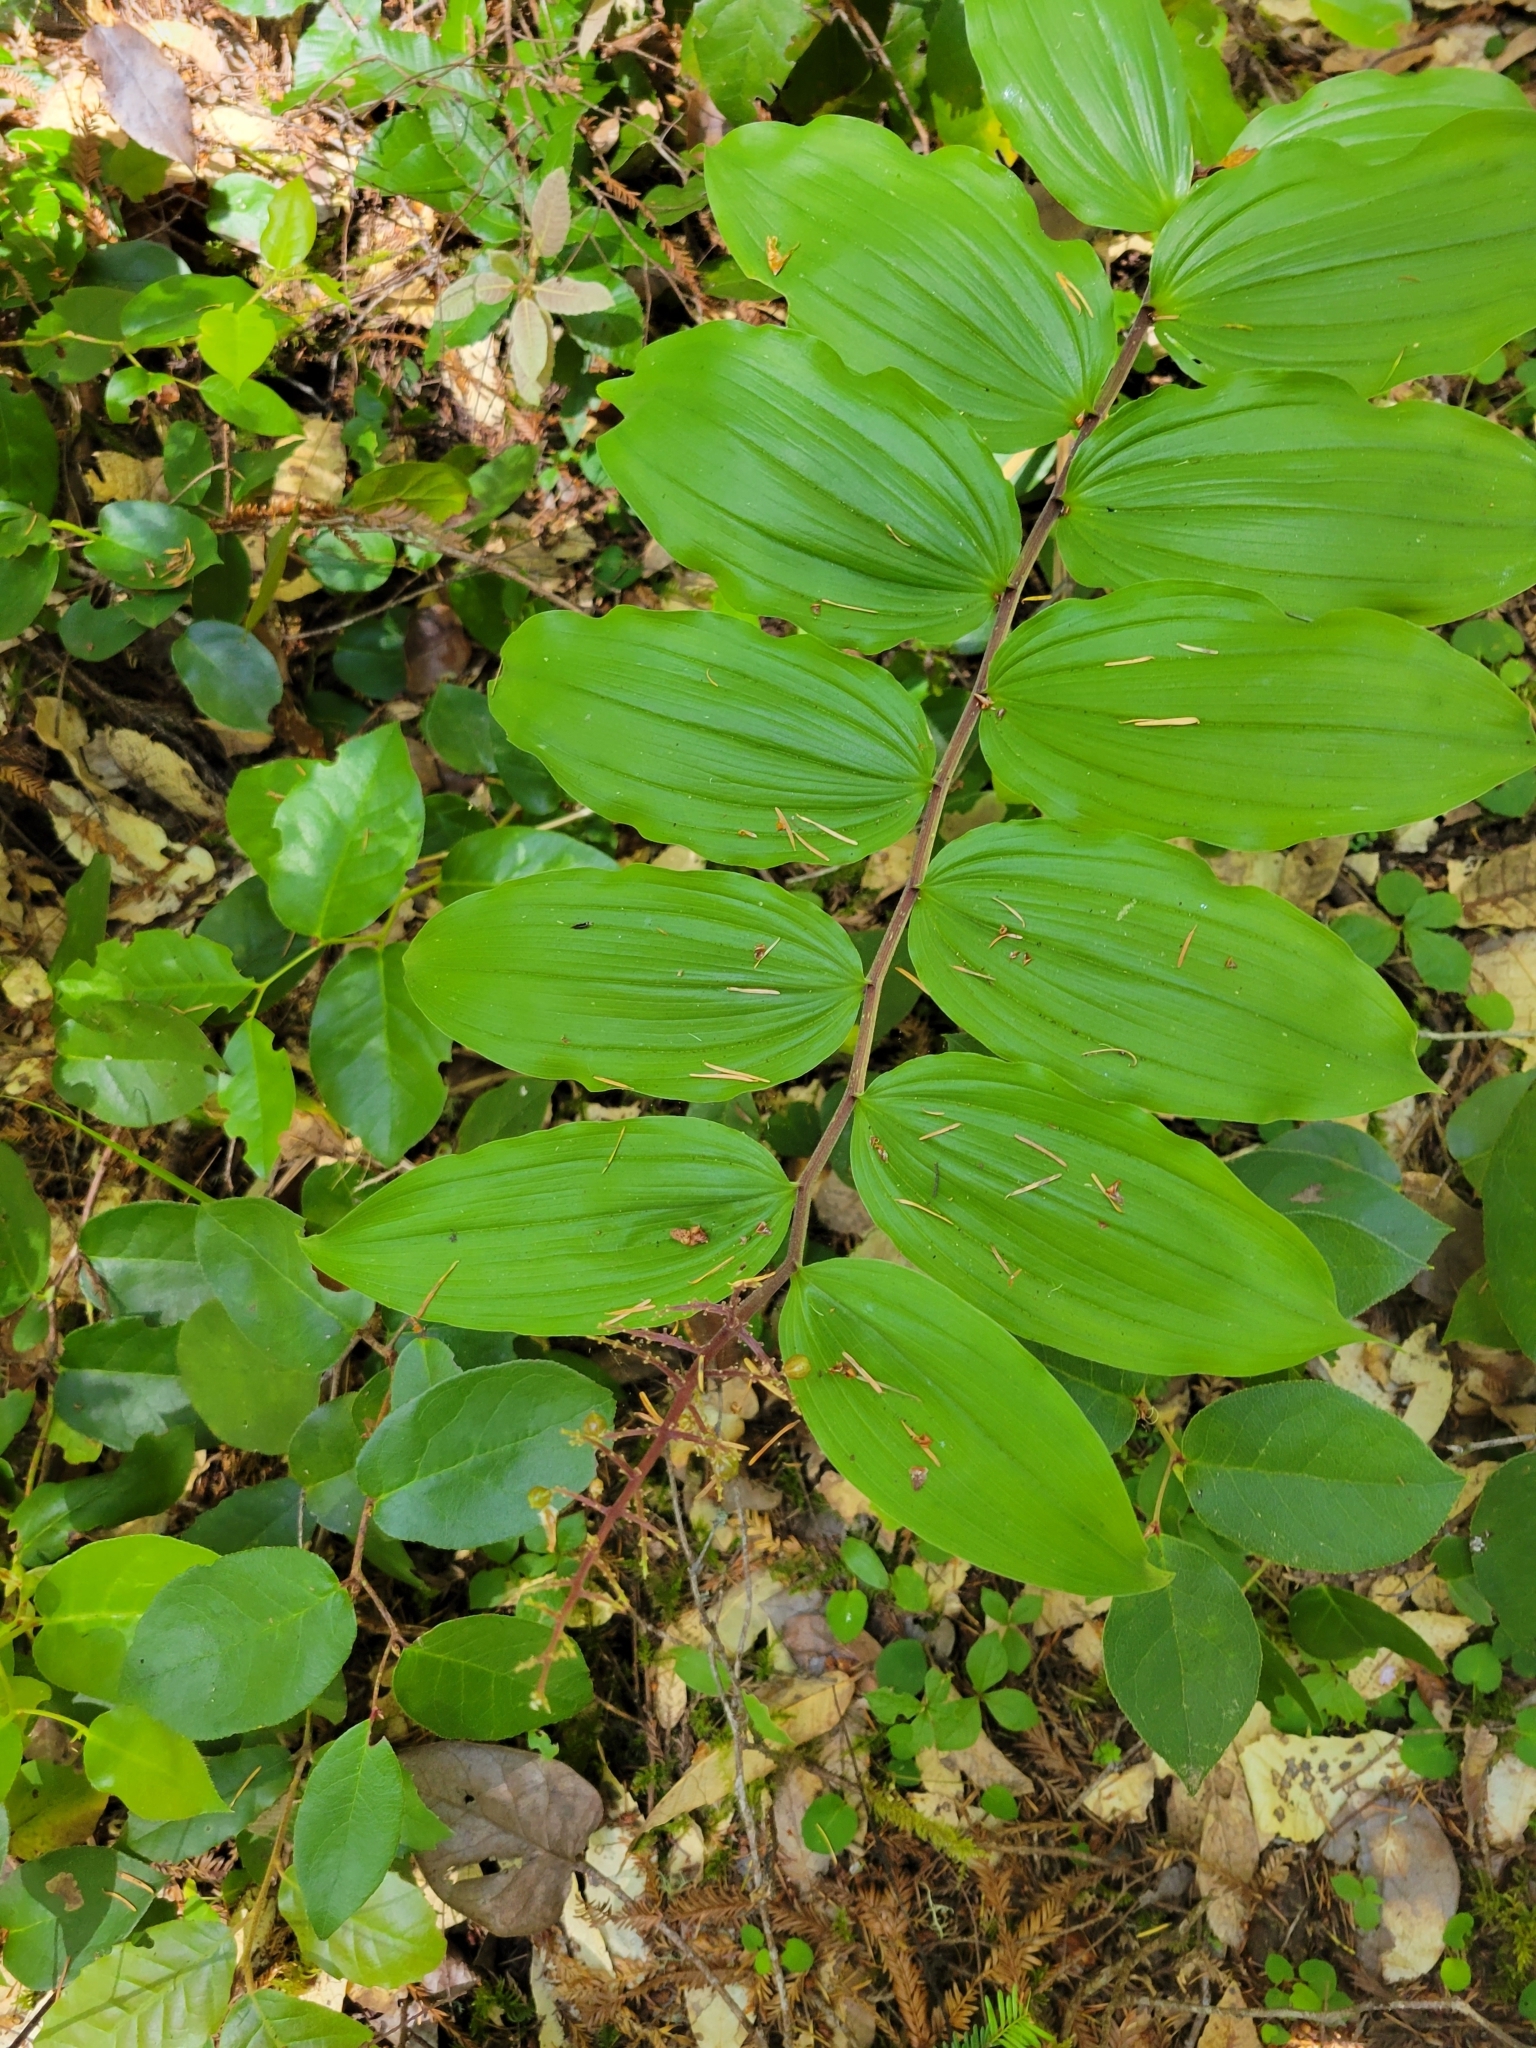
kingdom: Plantae
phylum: Tracheophyta
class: Liliopsida
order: Asparagales
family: Asparagaceae
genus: Maianthemum
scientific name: Maianthemum racemosum
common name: False spikenard
